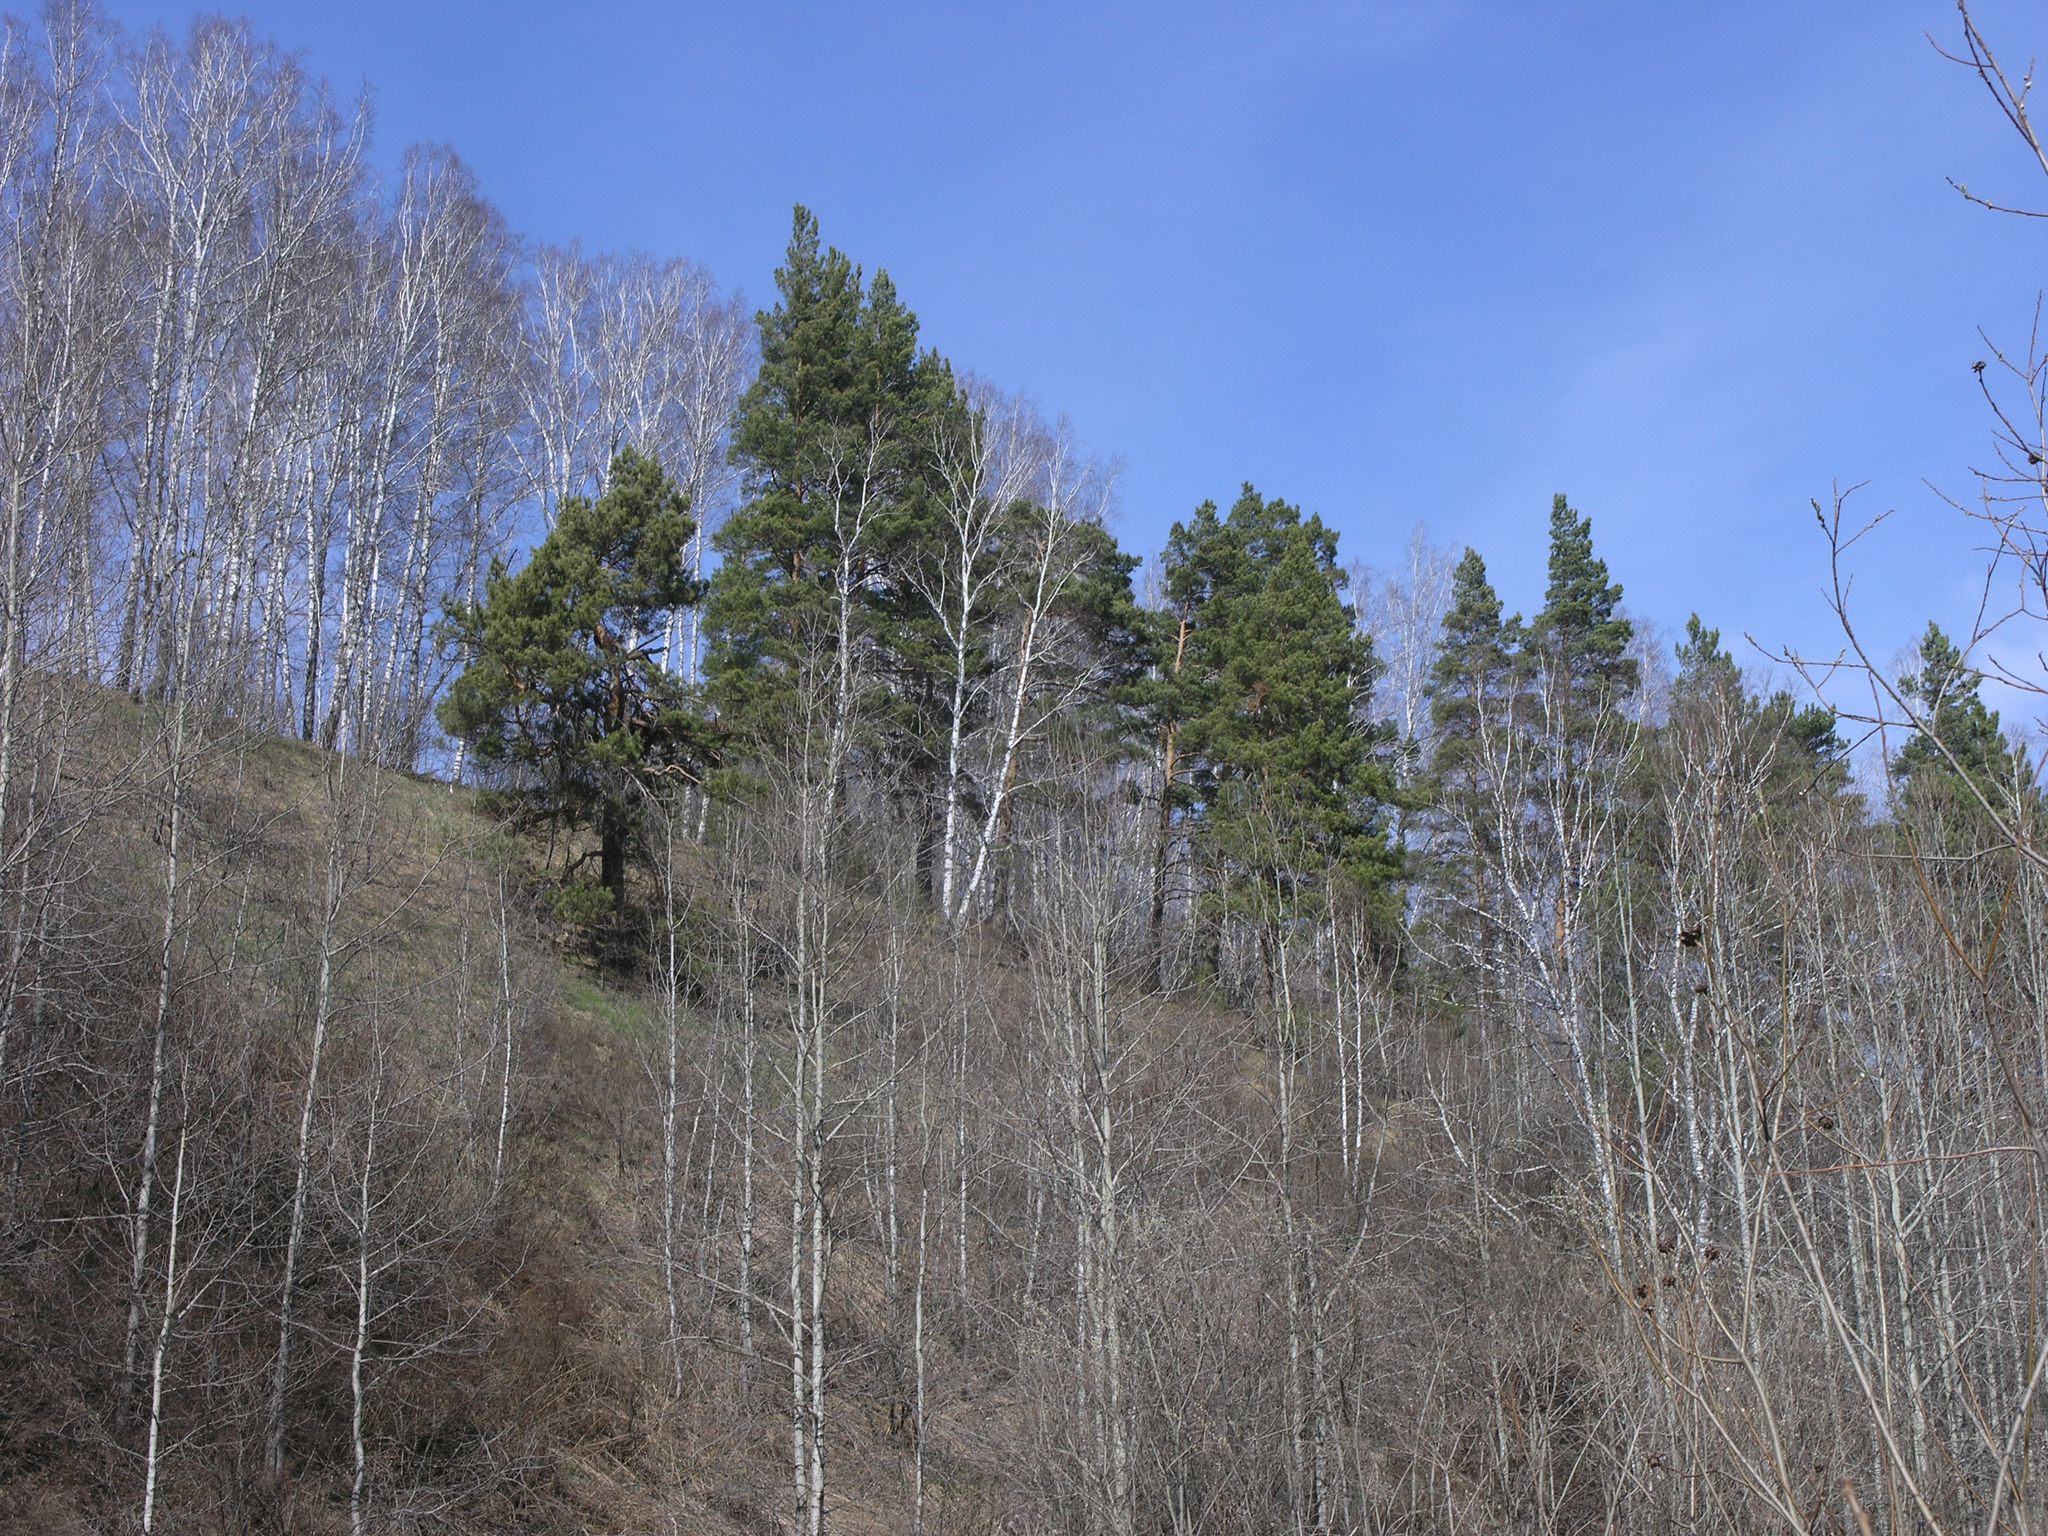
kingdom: Plantae
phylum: Tracheophyta
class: Pinopsida
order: Pinales
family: Pinaceae
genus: Pinus
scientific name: Pinus sylvestris
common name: Scots pine
